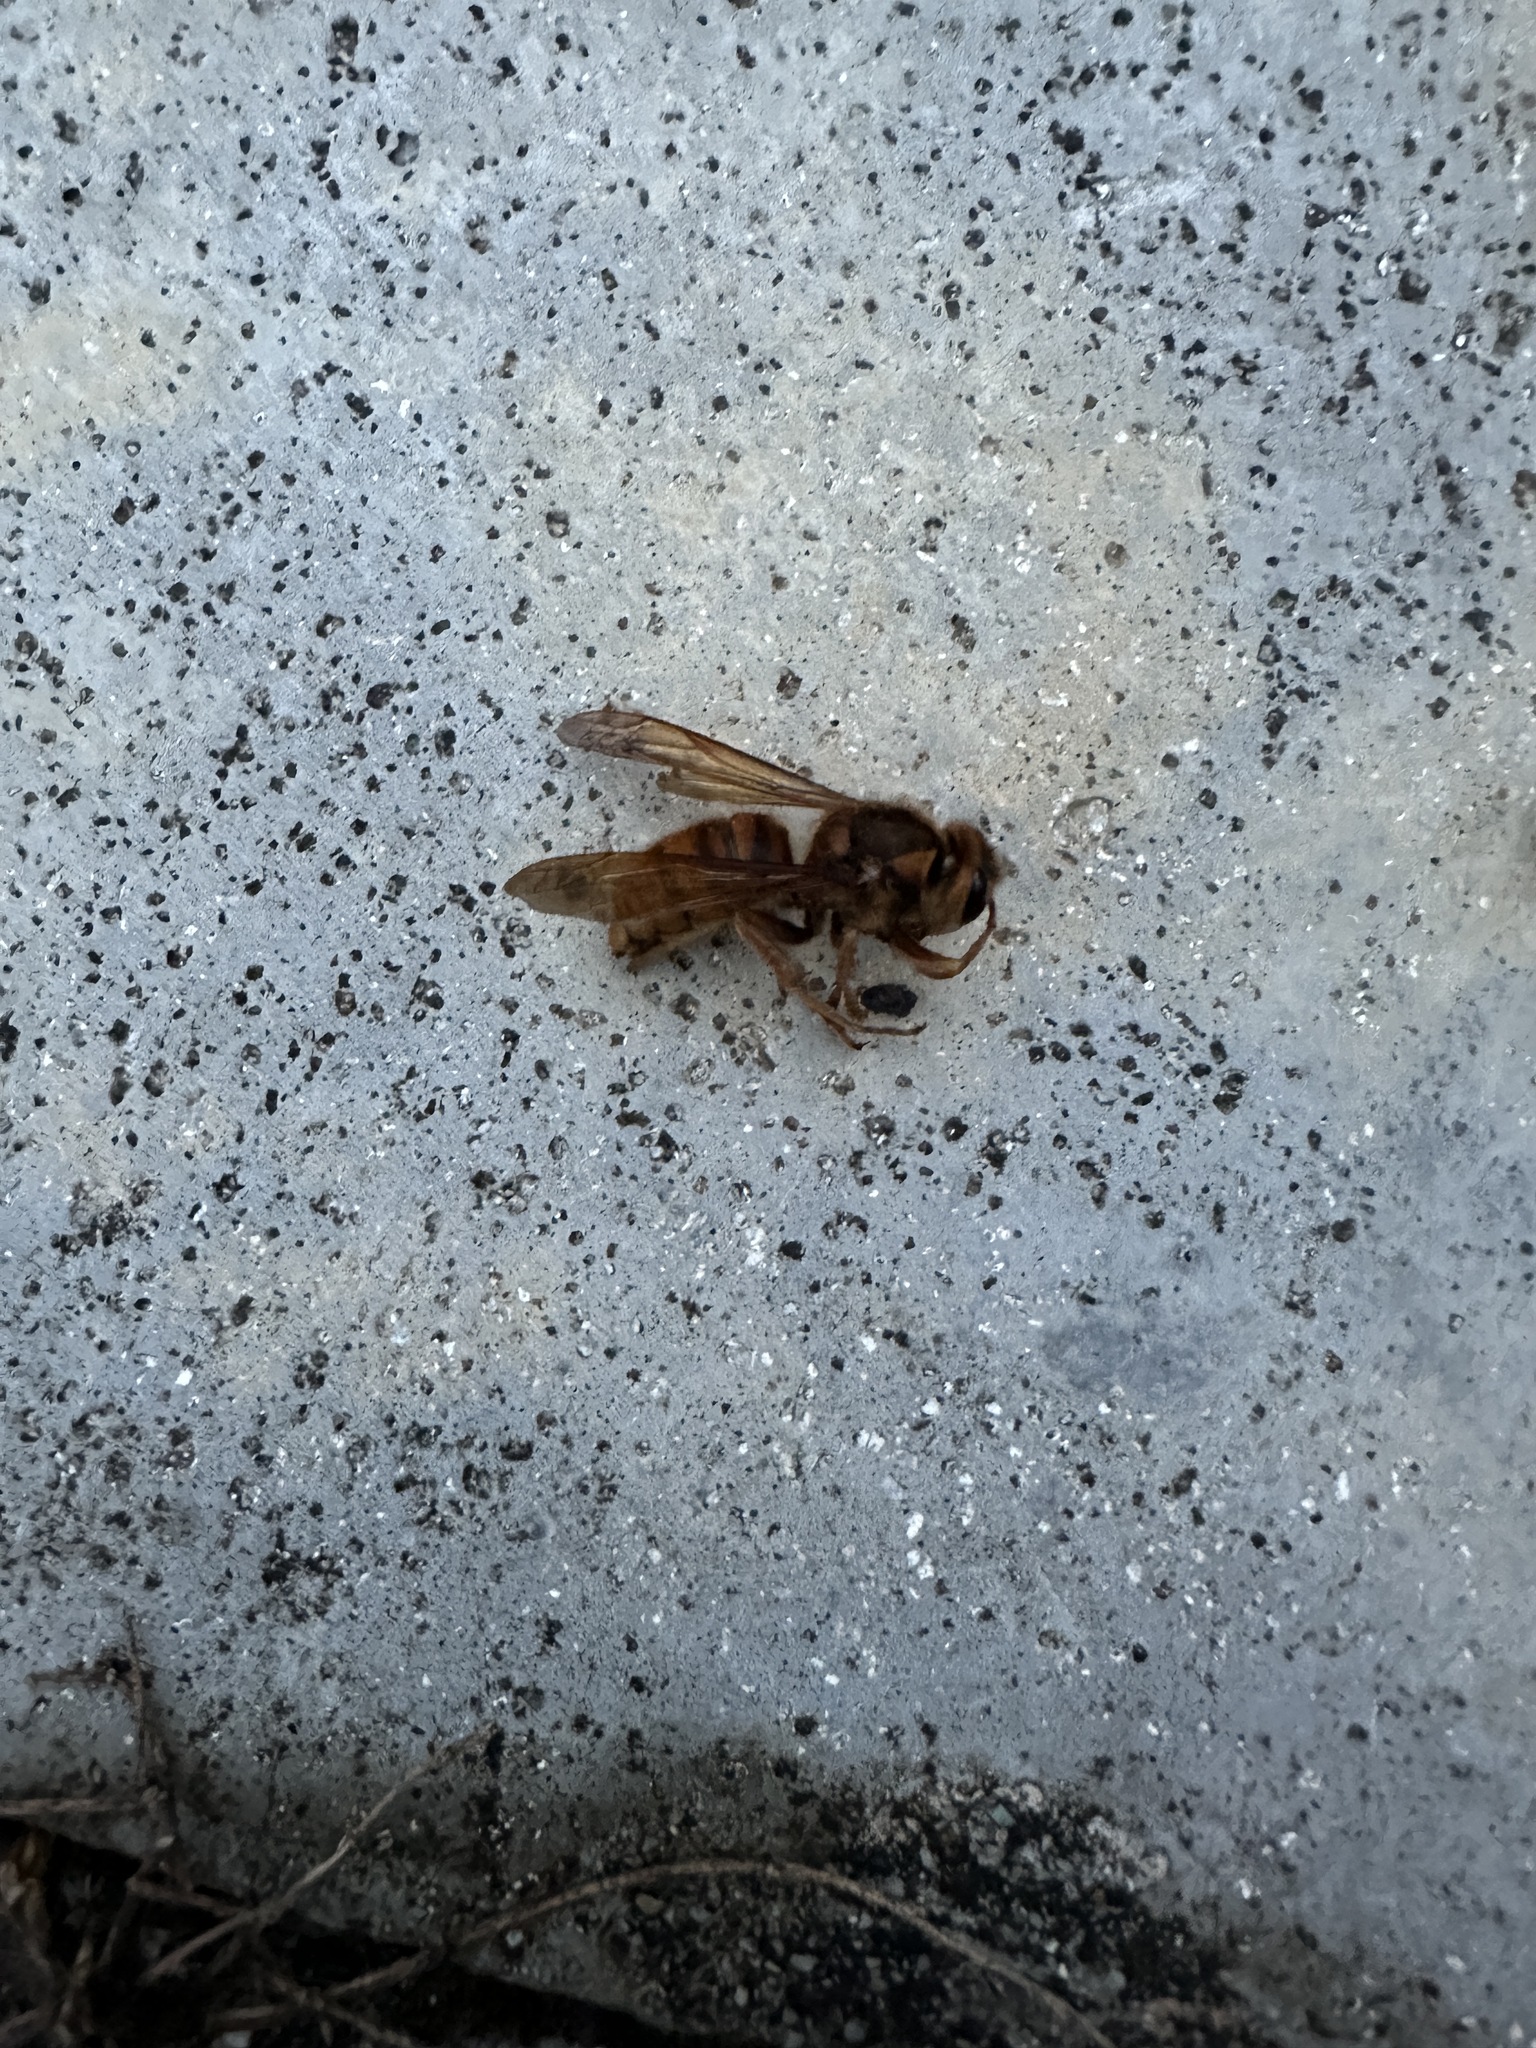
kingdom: Animalia
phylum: Arthropoda
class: Insecta
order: Hymenoptera
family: Vespidae
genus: Vespa
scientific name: Vespa simillima
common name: Vespid wasp
